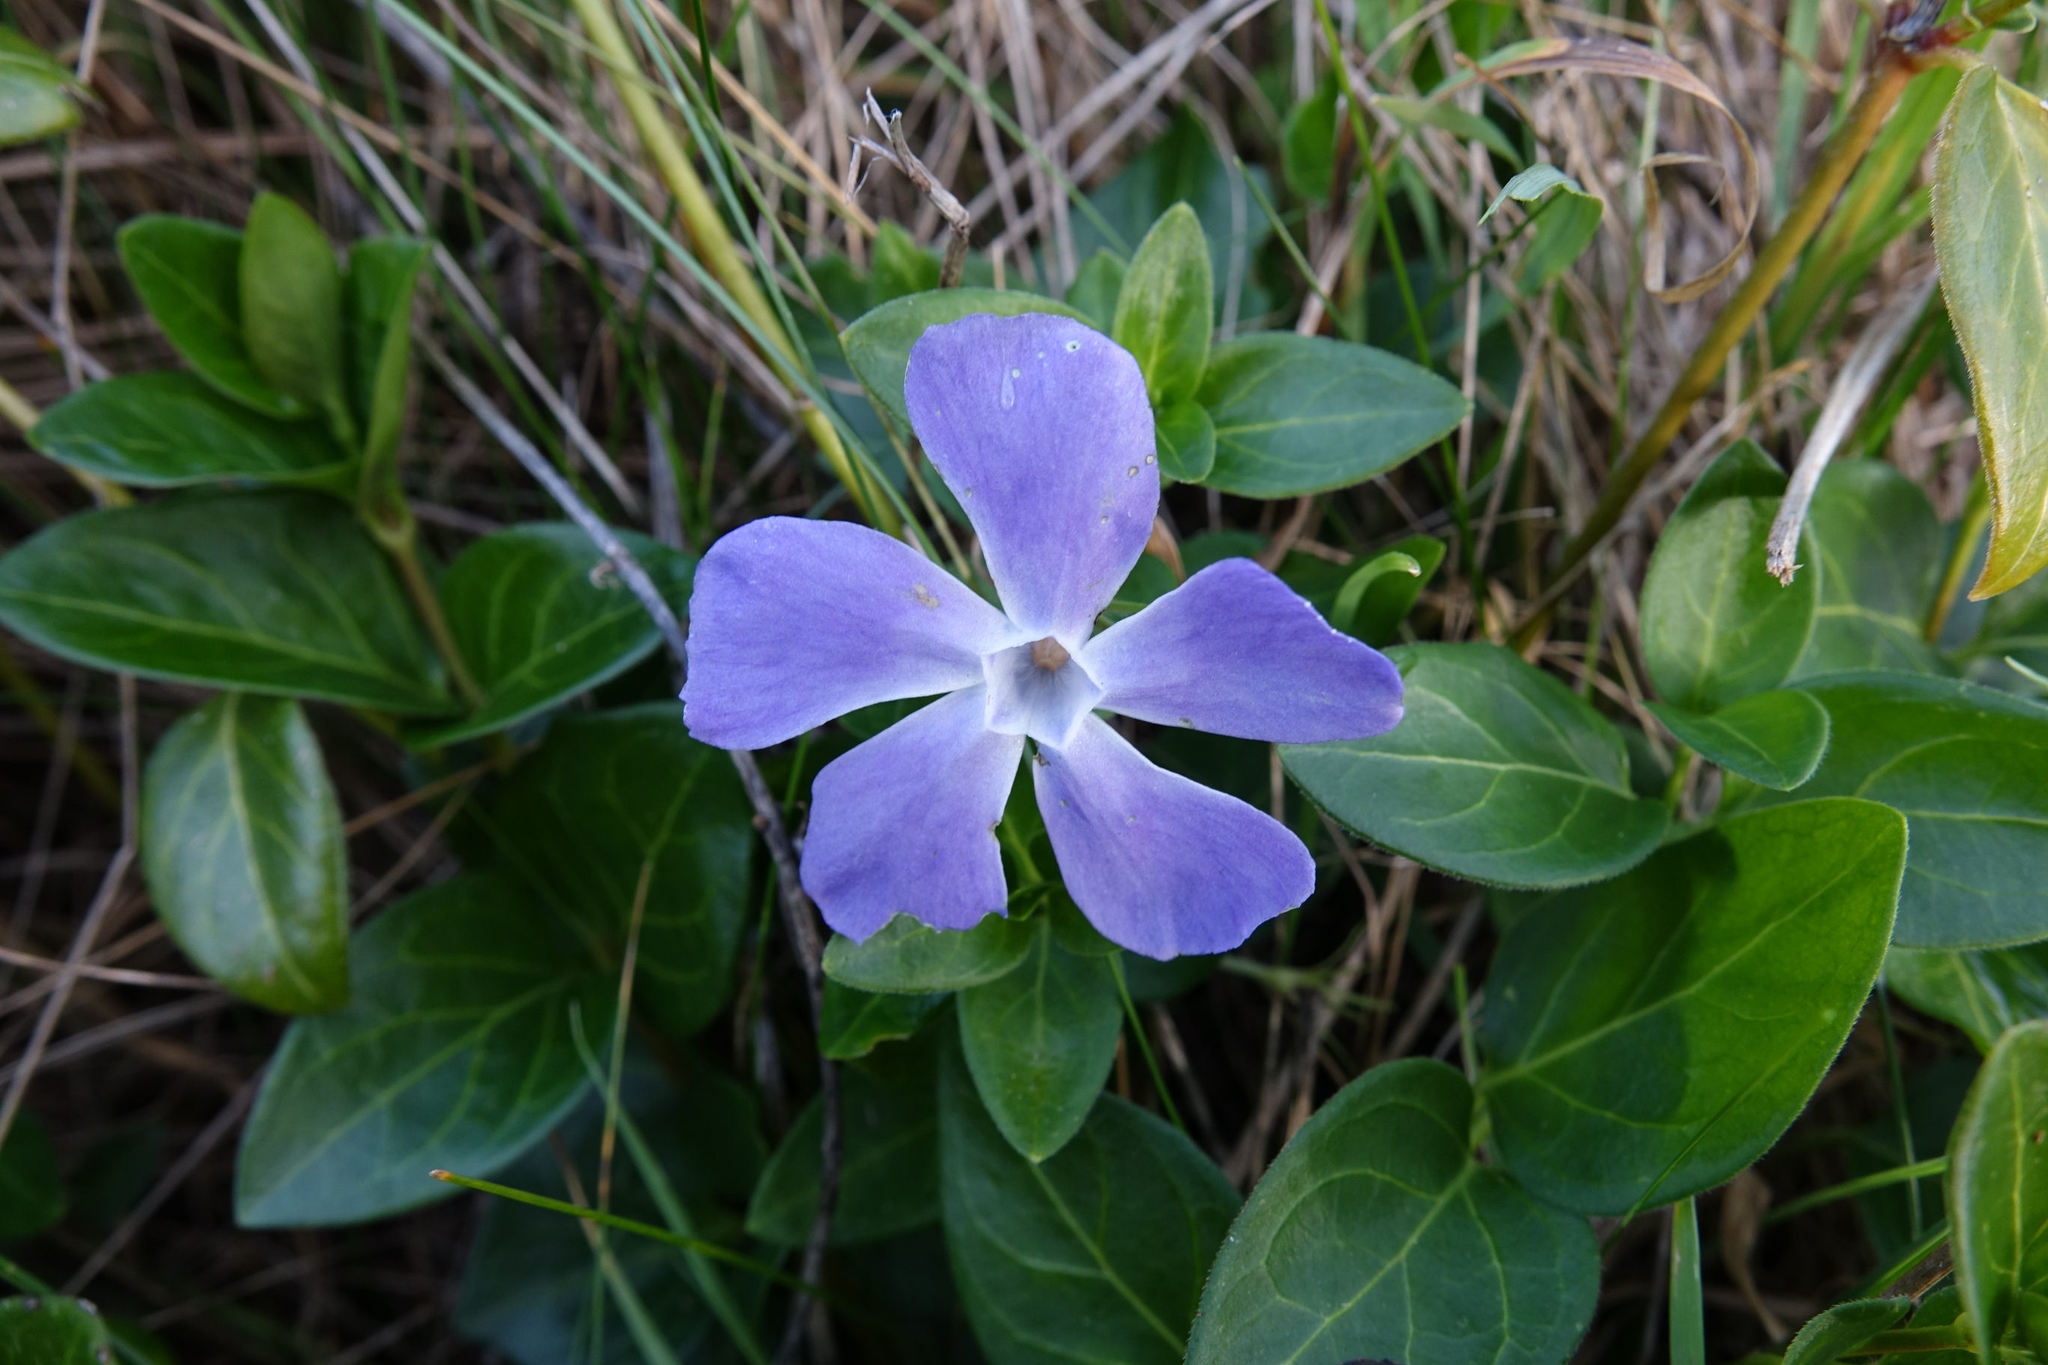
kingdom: Plantae
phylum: Tracheophyta
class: Magnoliopsida
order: Gentianales
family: Apocynaceae
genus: Vinca
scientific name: Vinca major
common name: Greater periwinkle
